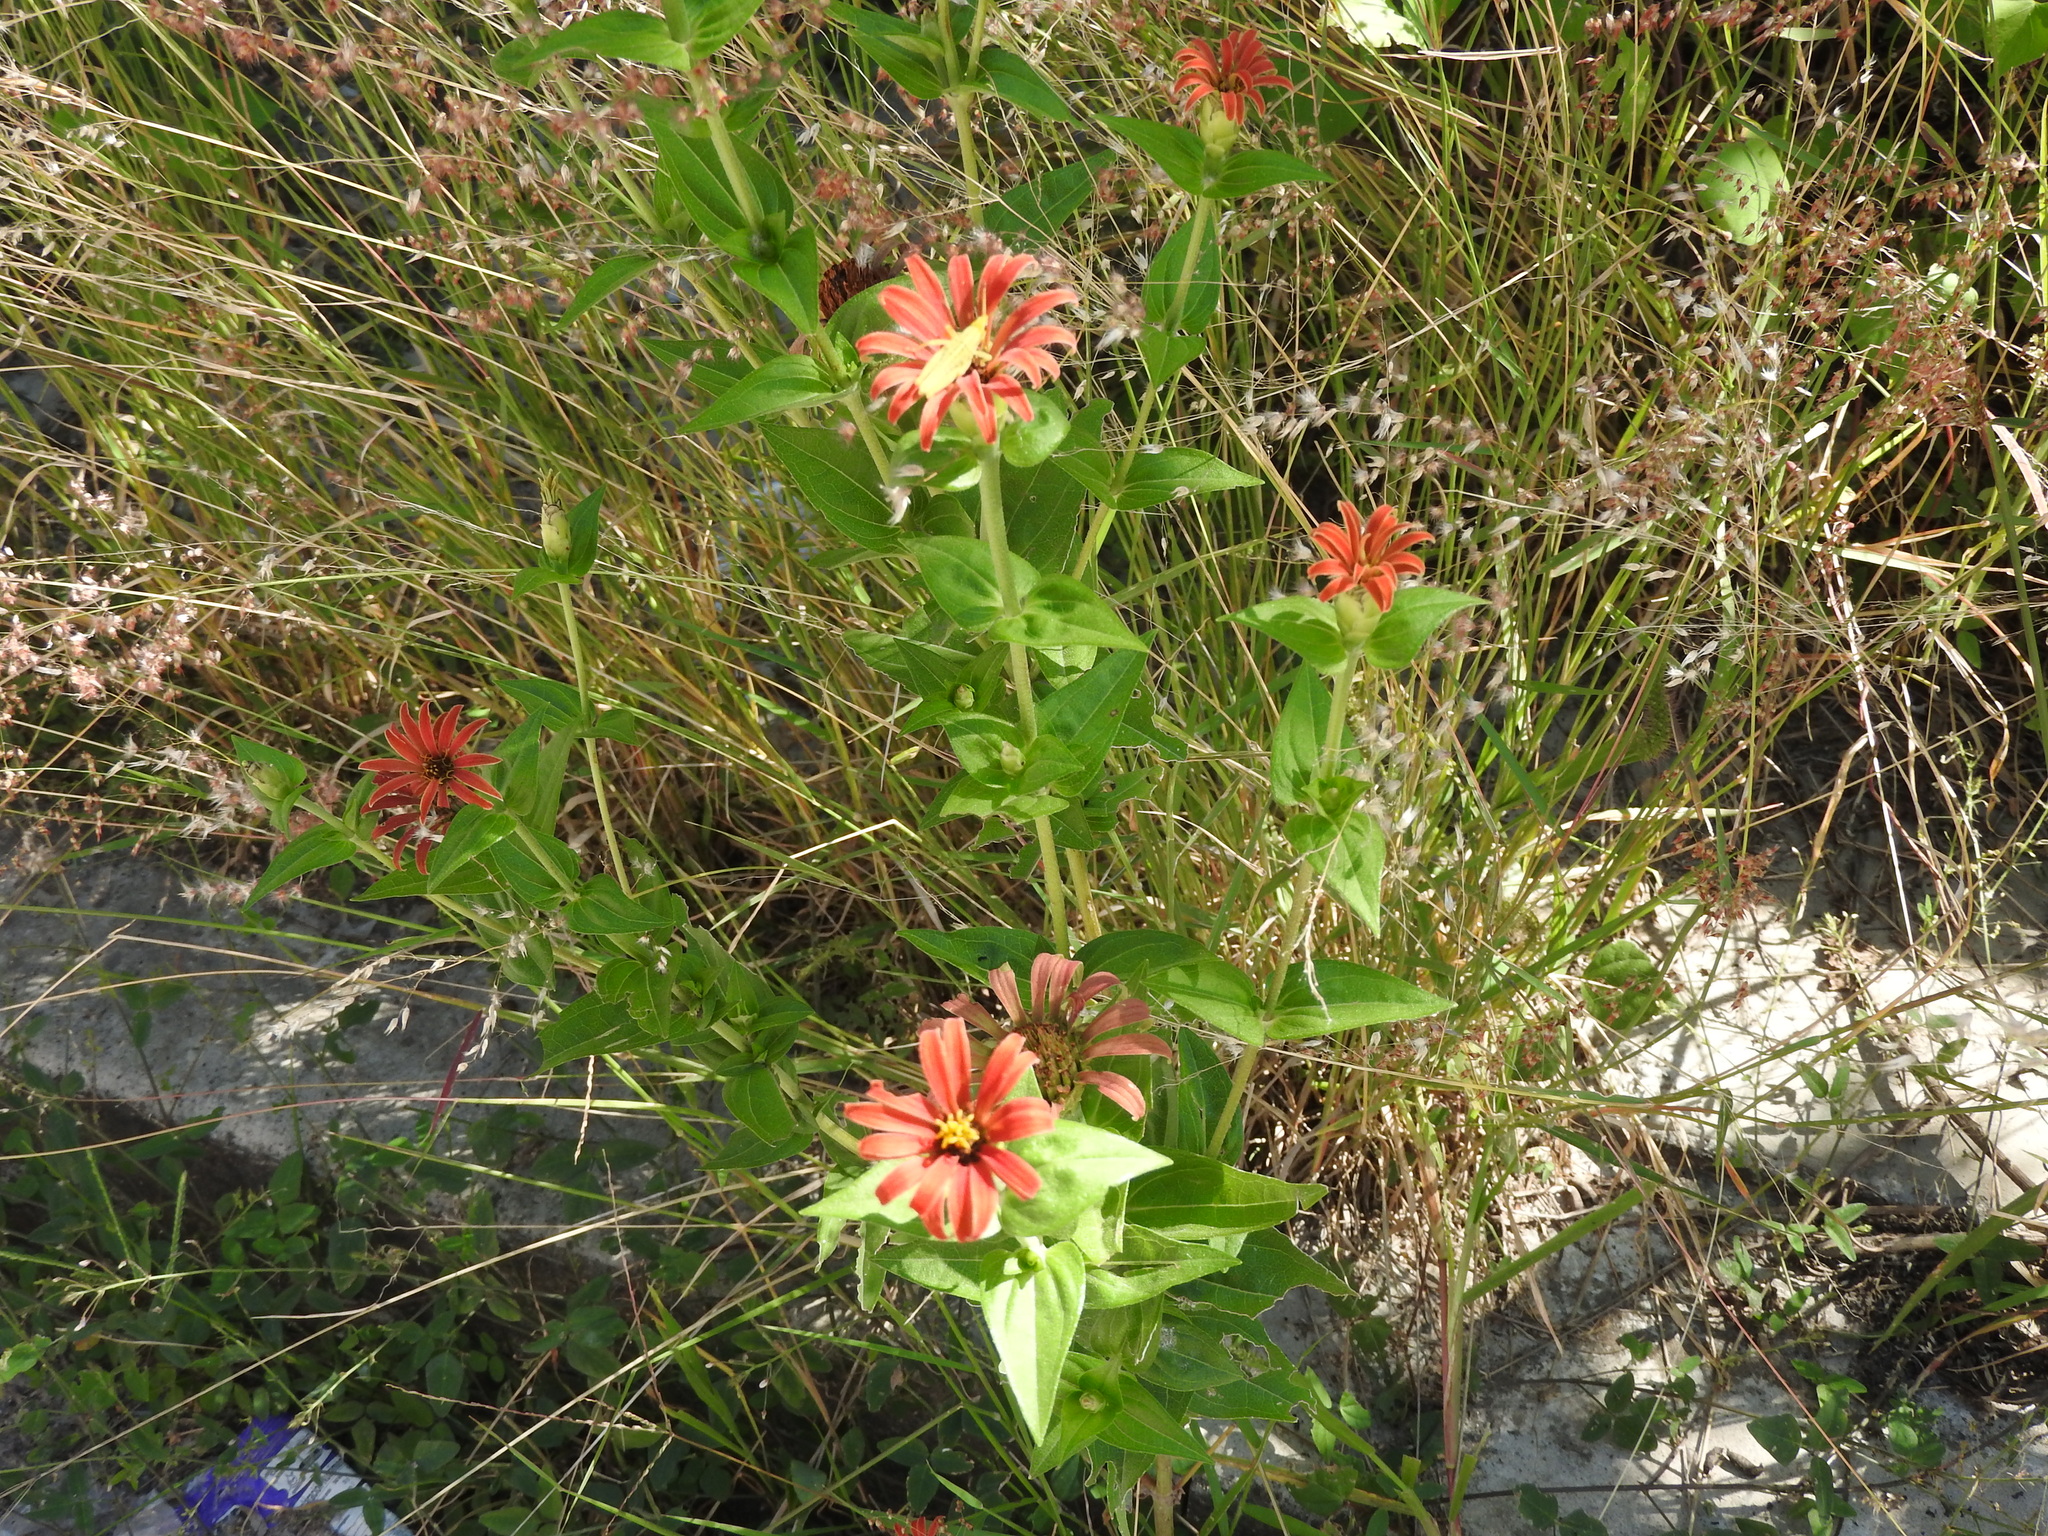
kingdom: Plantae
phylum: Tracheophyta
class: Magnoliopsida
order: Asterales
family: Asteraceae
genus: Zinnia
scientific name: Zinnia peruviana
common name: Peruvian zinnia
